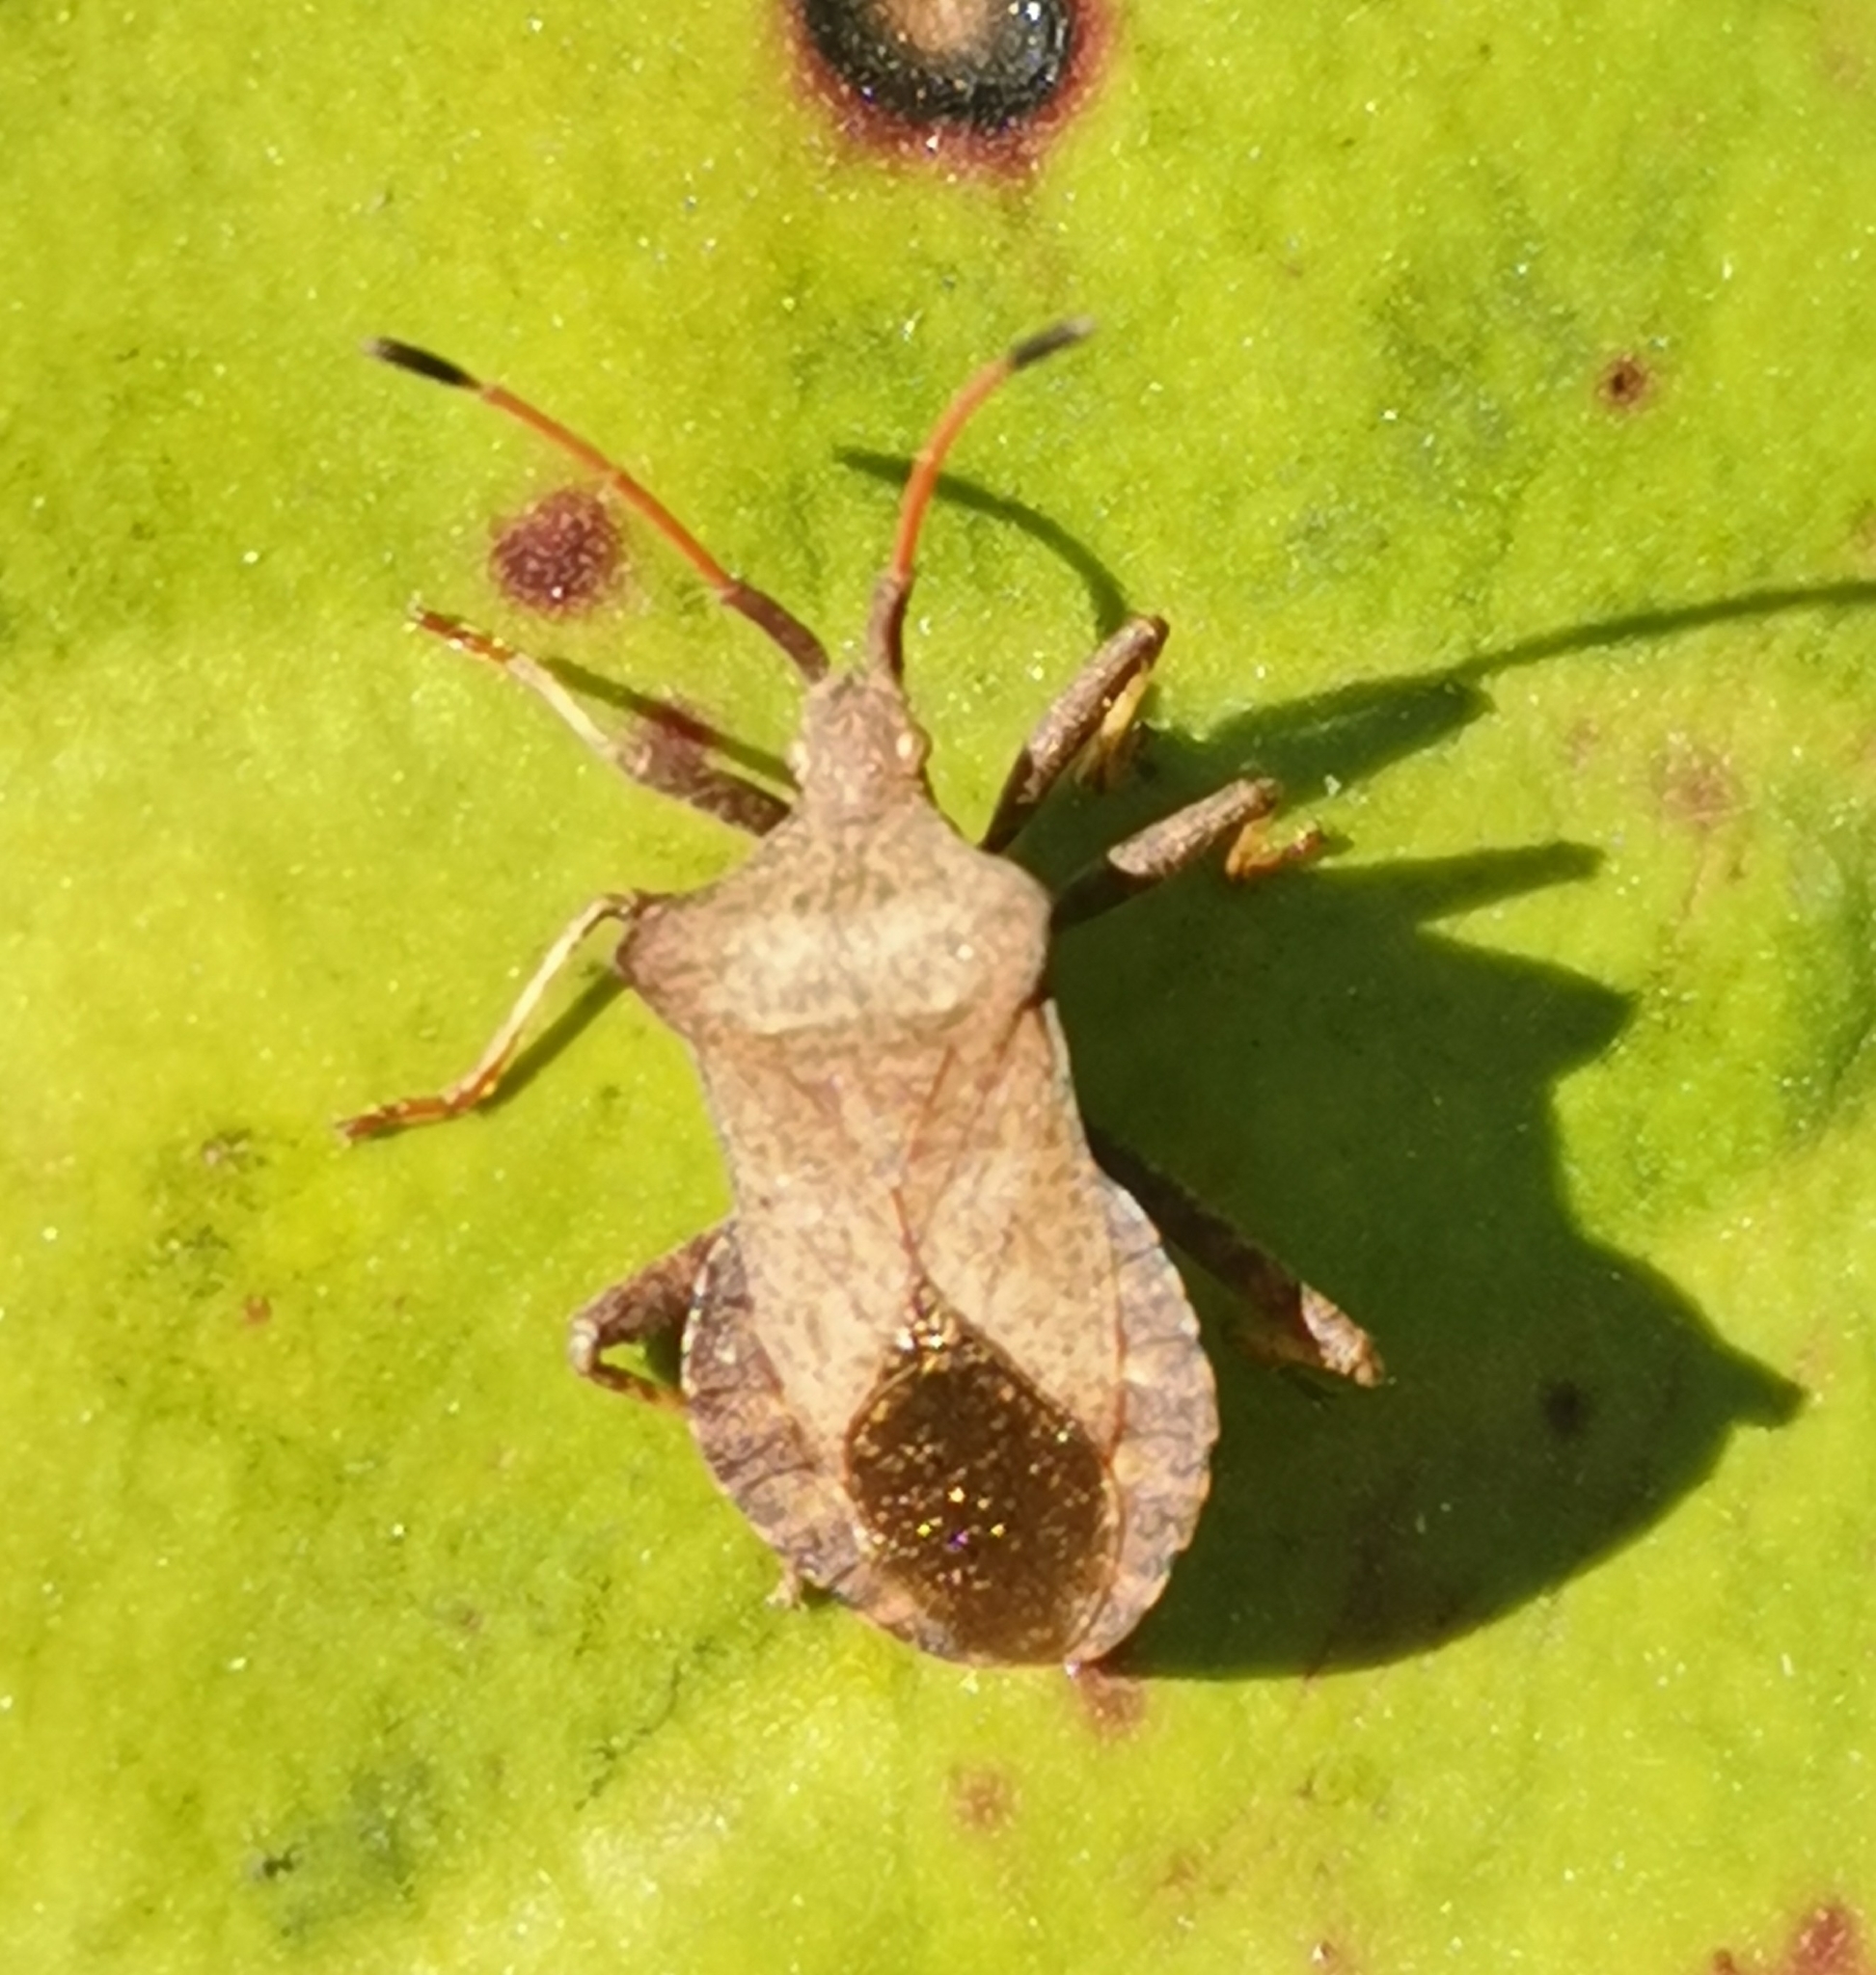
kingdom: Animalia
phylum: Arthropoda
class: Insecta
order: Hemiptera
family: Coreidae
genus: Coreus
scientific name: Coreus marginatus
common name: Dock bug
